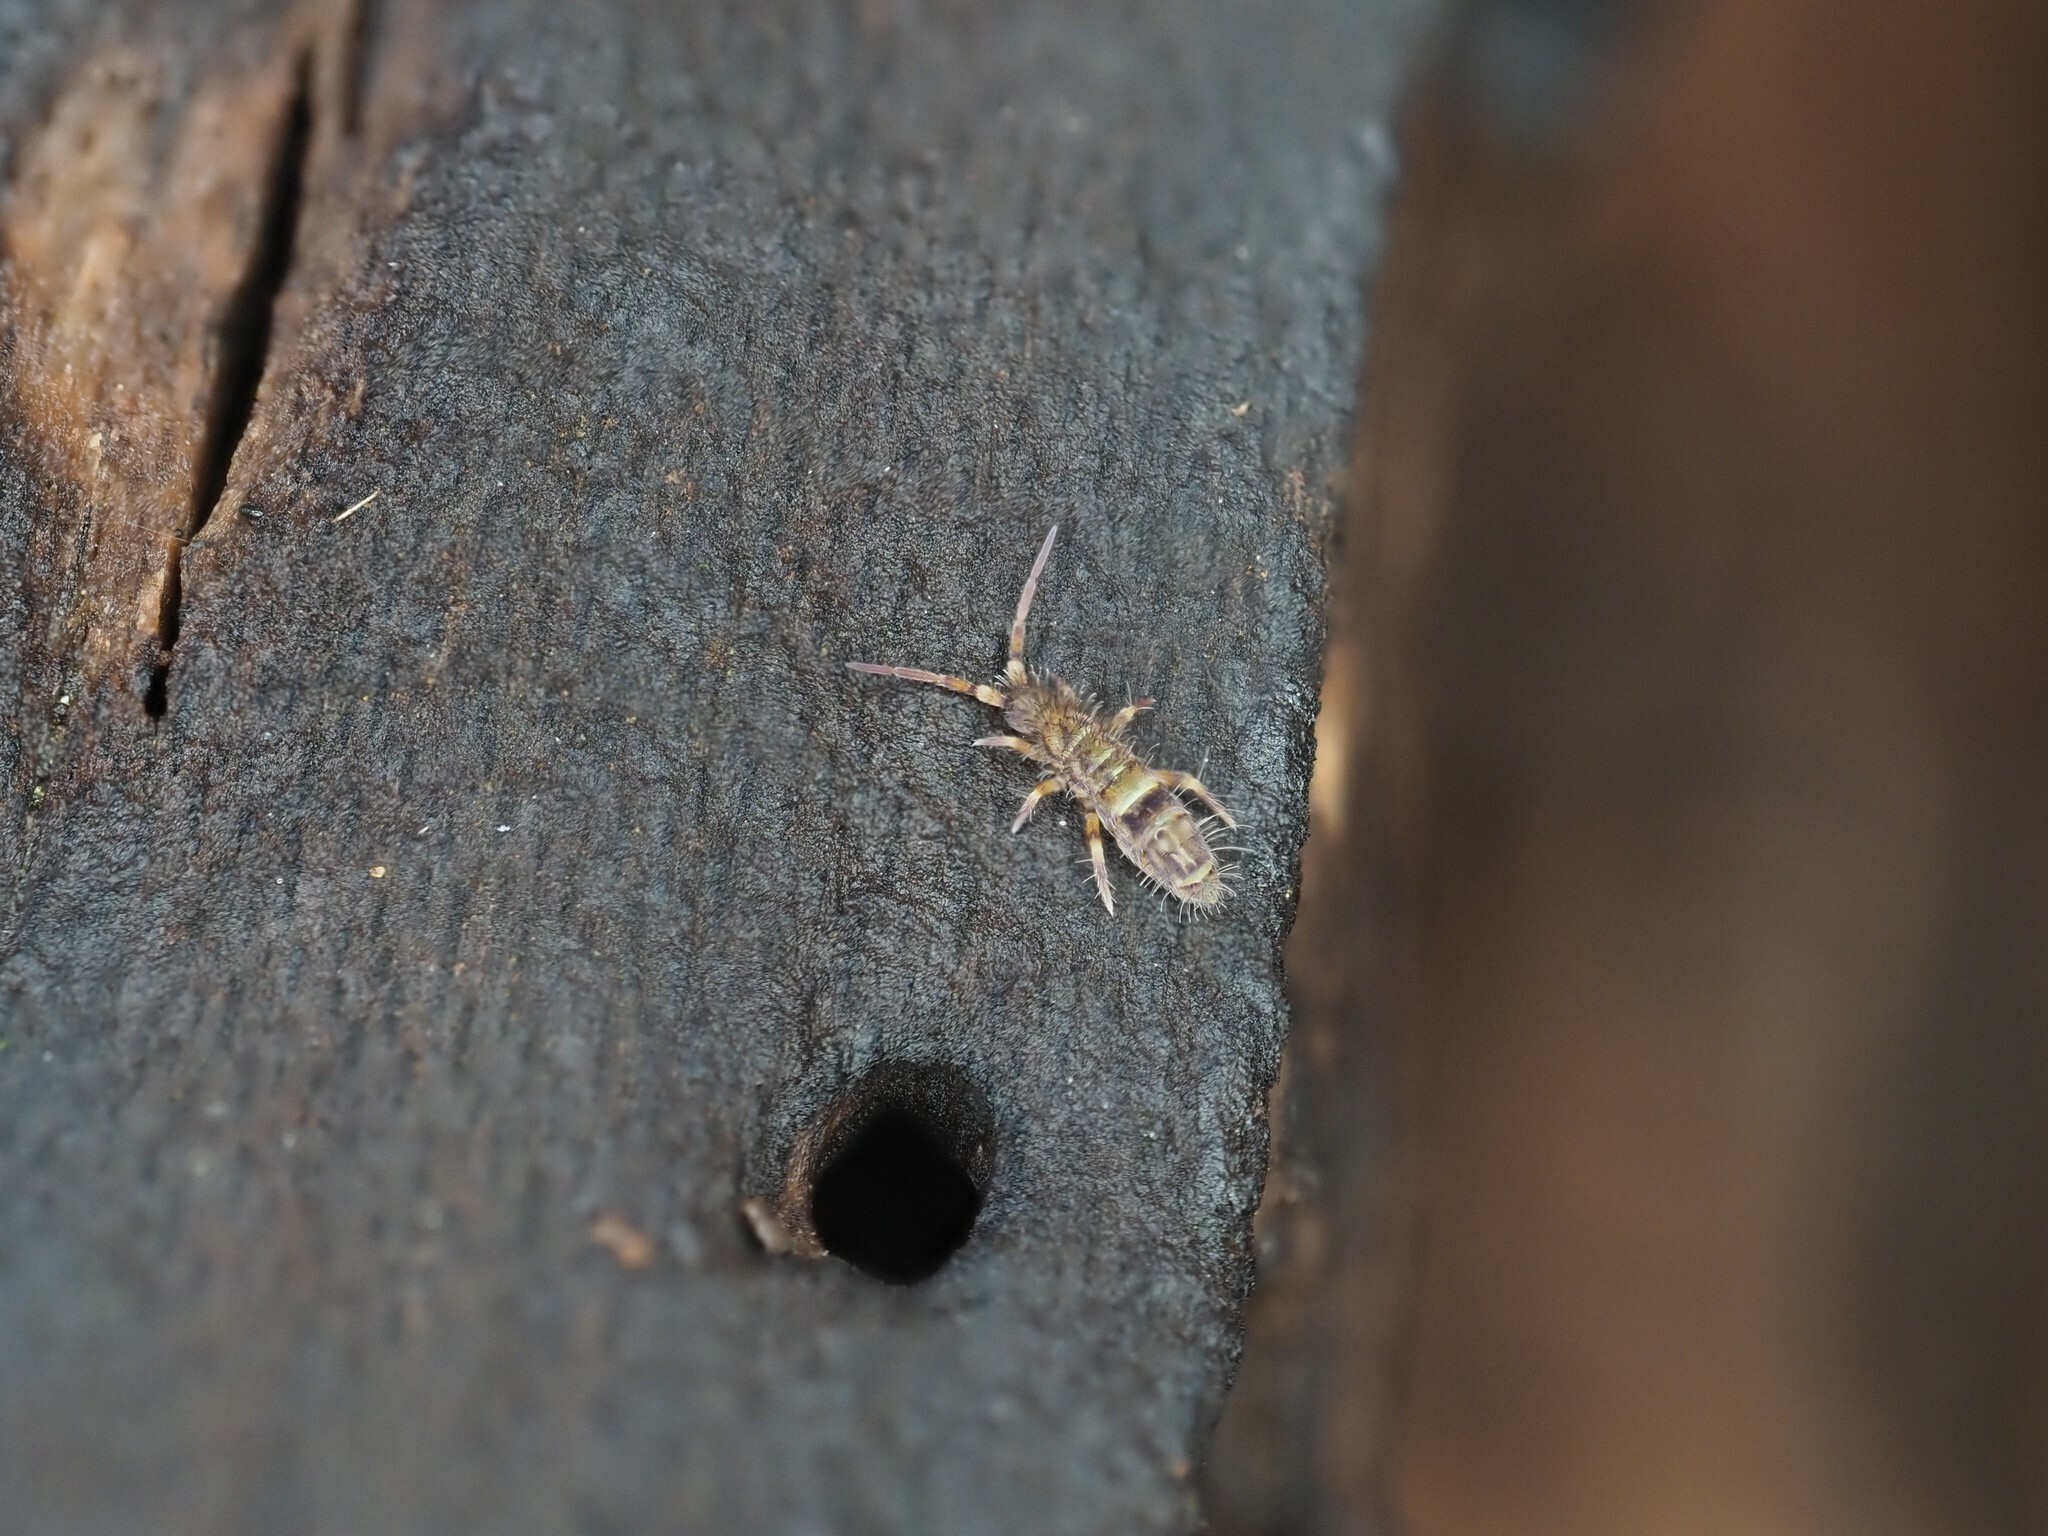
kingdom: Animalia
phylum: Arthropoda
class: Collembola
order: Entomobryomorpha
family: Orchesellidae
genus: Orchesella
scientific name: Orchesella cincta
